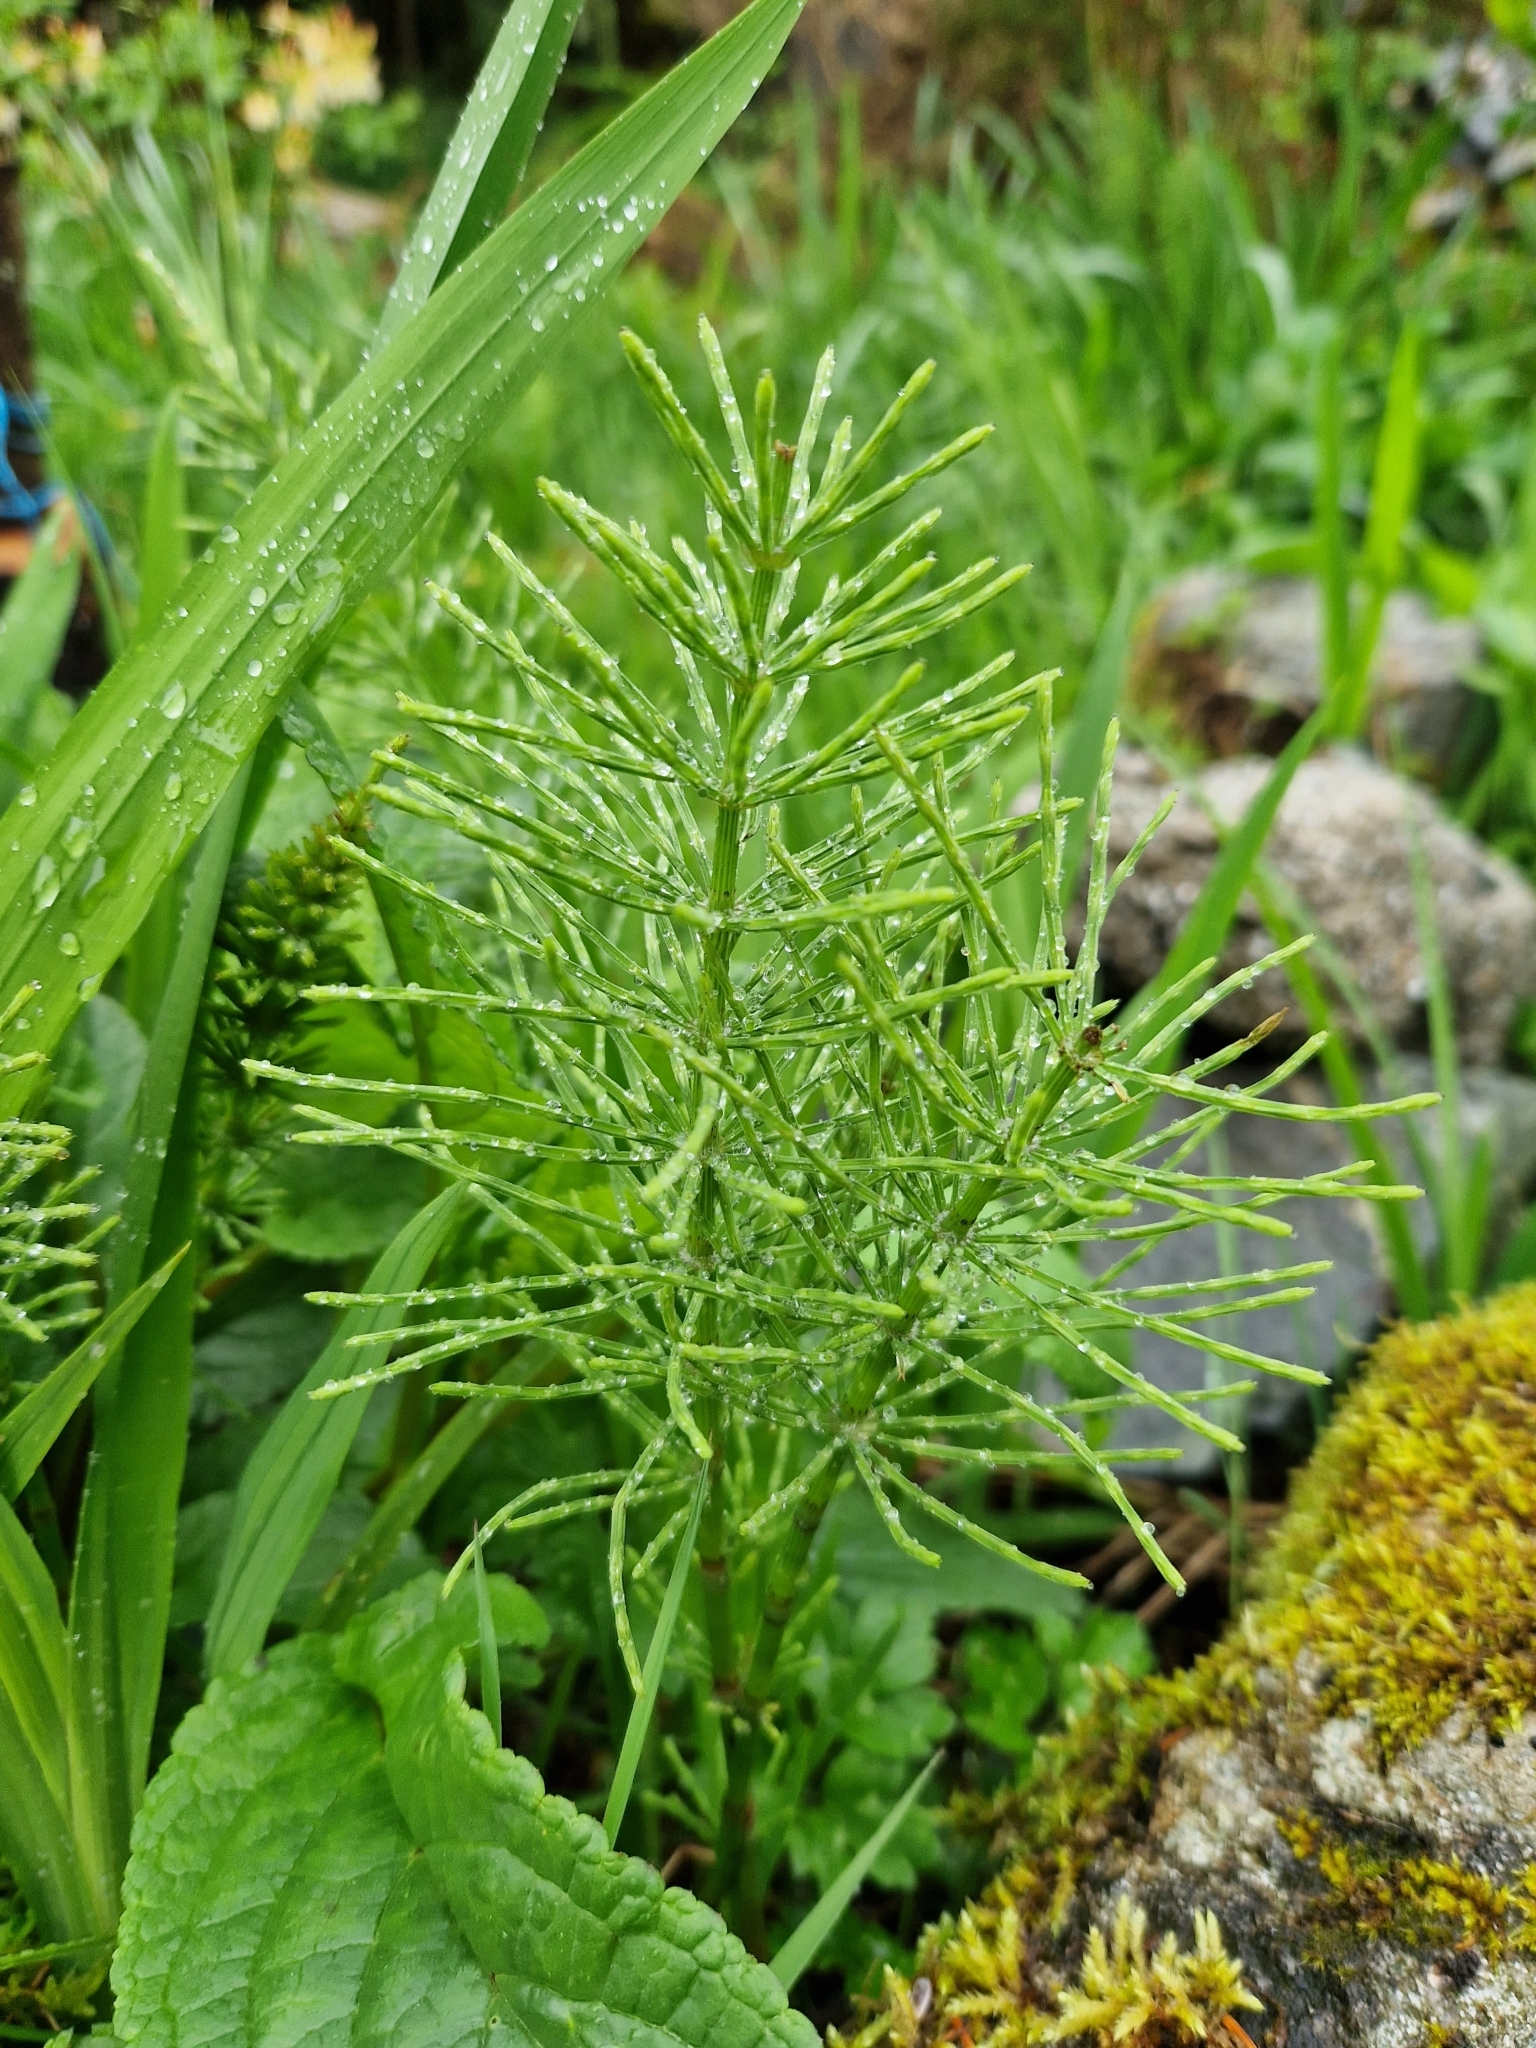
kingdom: Plantae
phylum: Tracheophyta
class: Polypodiopsida
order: Equisetales
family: Equisetaceae
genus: Equisetum
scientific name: Equisetum arvense
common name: Field horsetail
